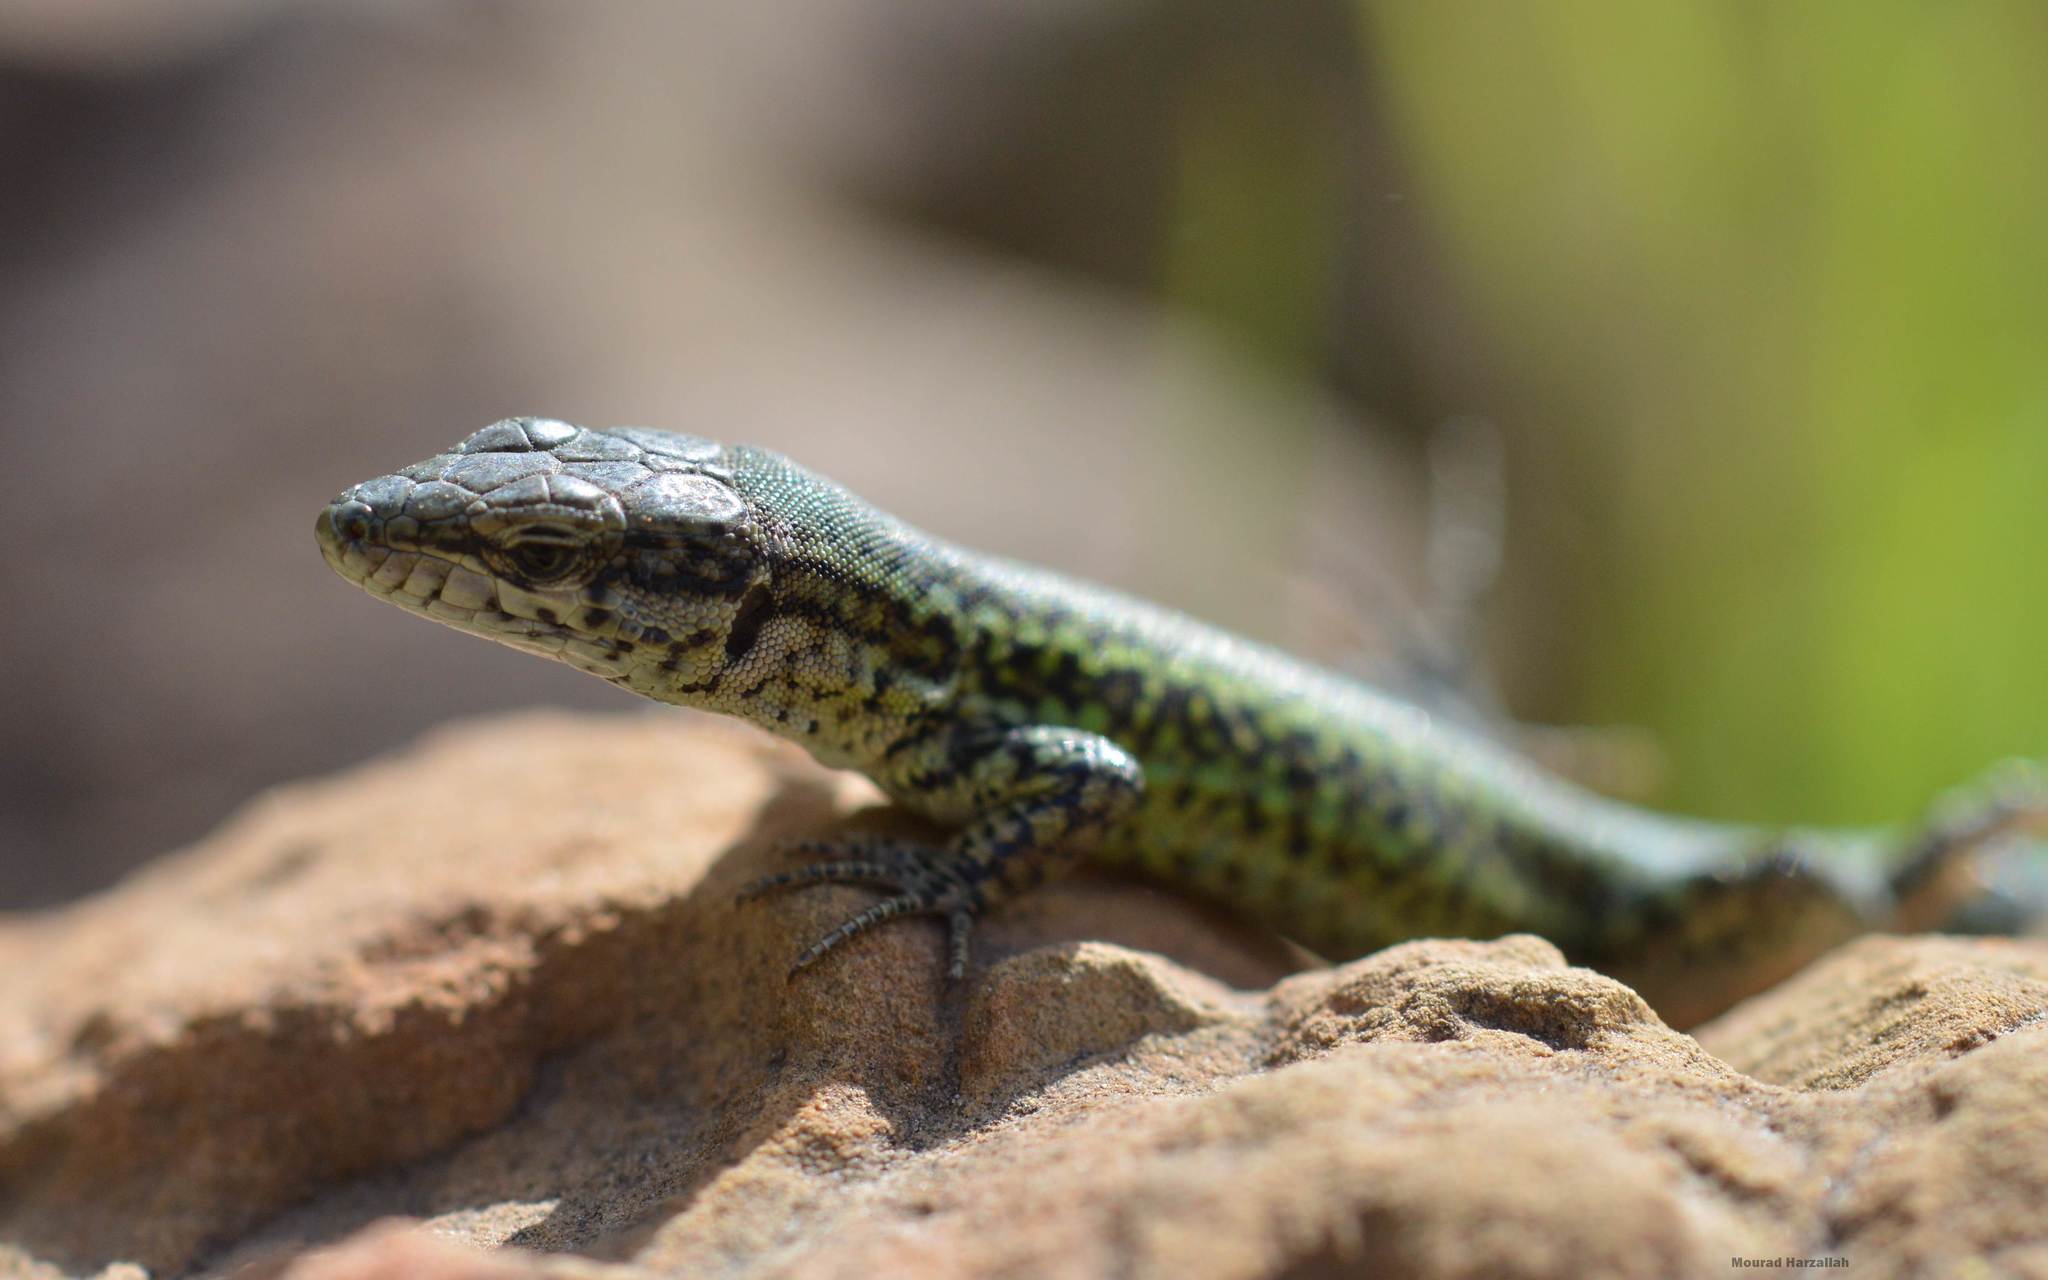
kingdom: Animalia
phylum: Chordata
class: Squamata
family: Lacertidae
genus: Podarcis
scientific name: Podarcis vaucheri
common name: Vaucher's wall lizard
